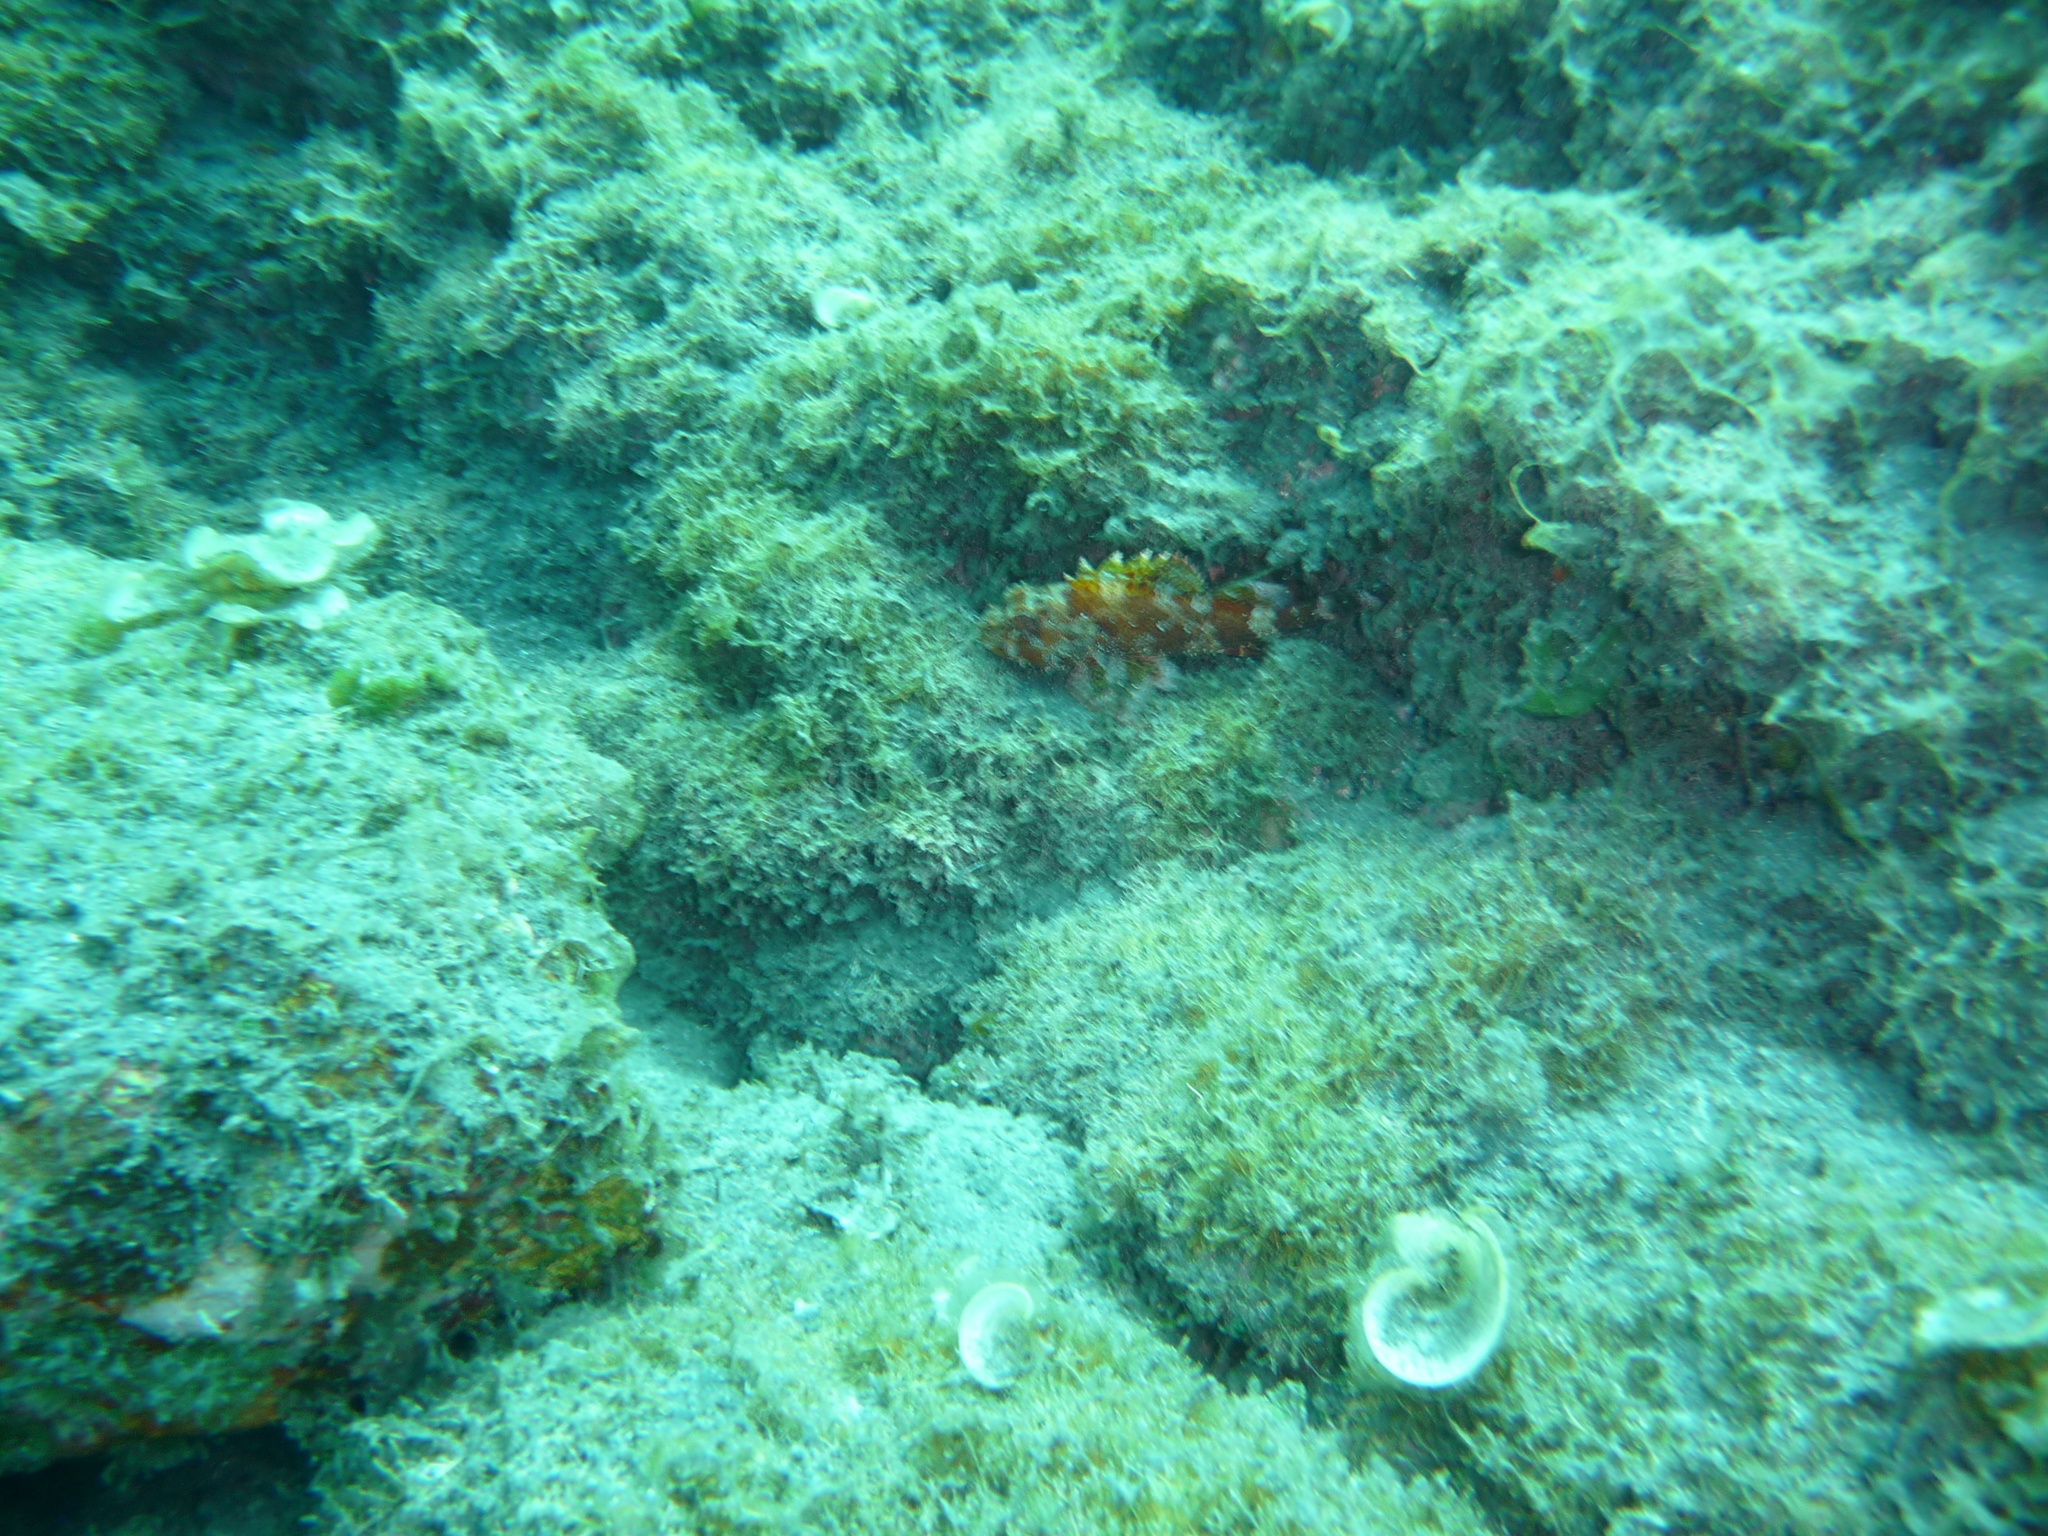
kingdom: Animalia
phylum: Chordata
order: Scorpaeniformes
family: Scorpaenidae
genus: Scorpaena
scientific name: Scorpaena maderensis
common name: Madeira rockfish
